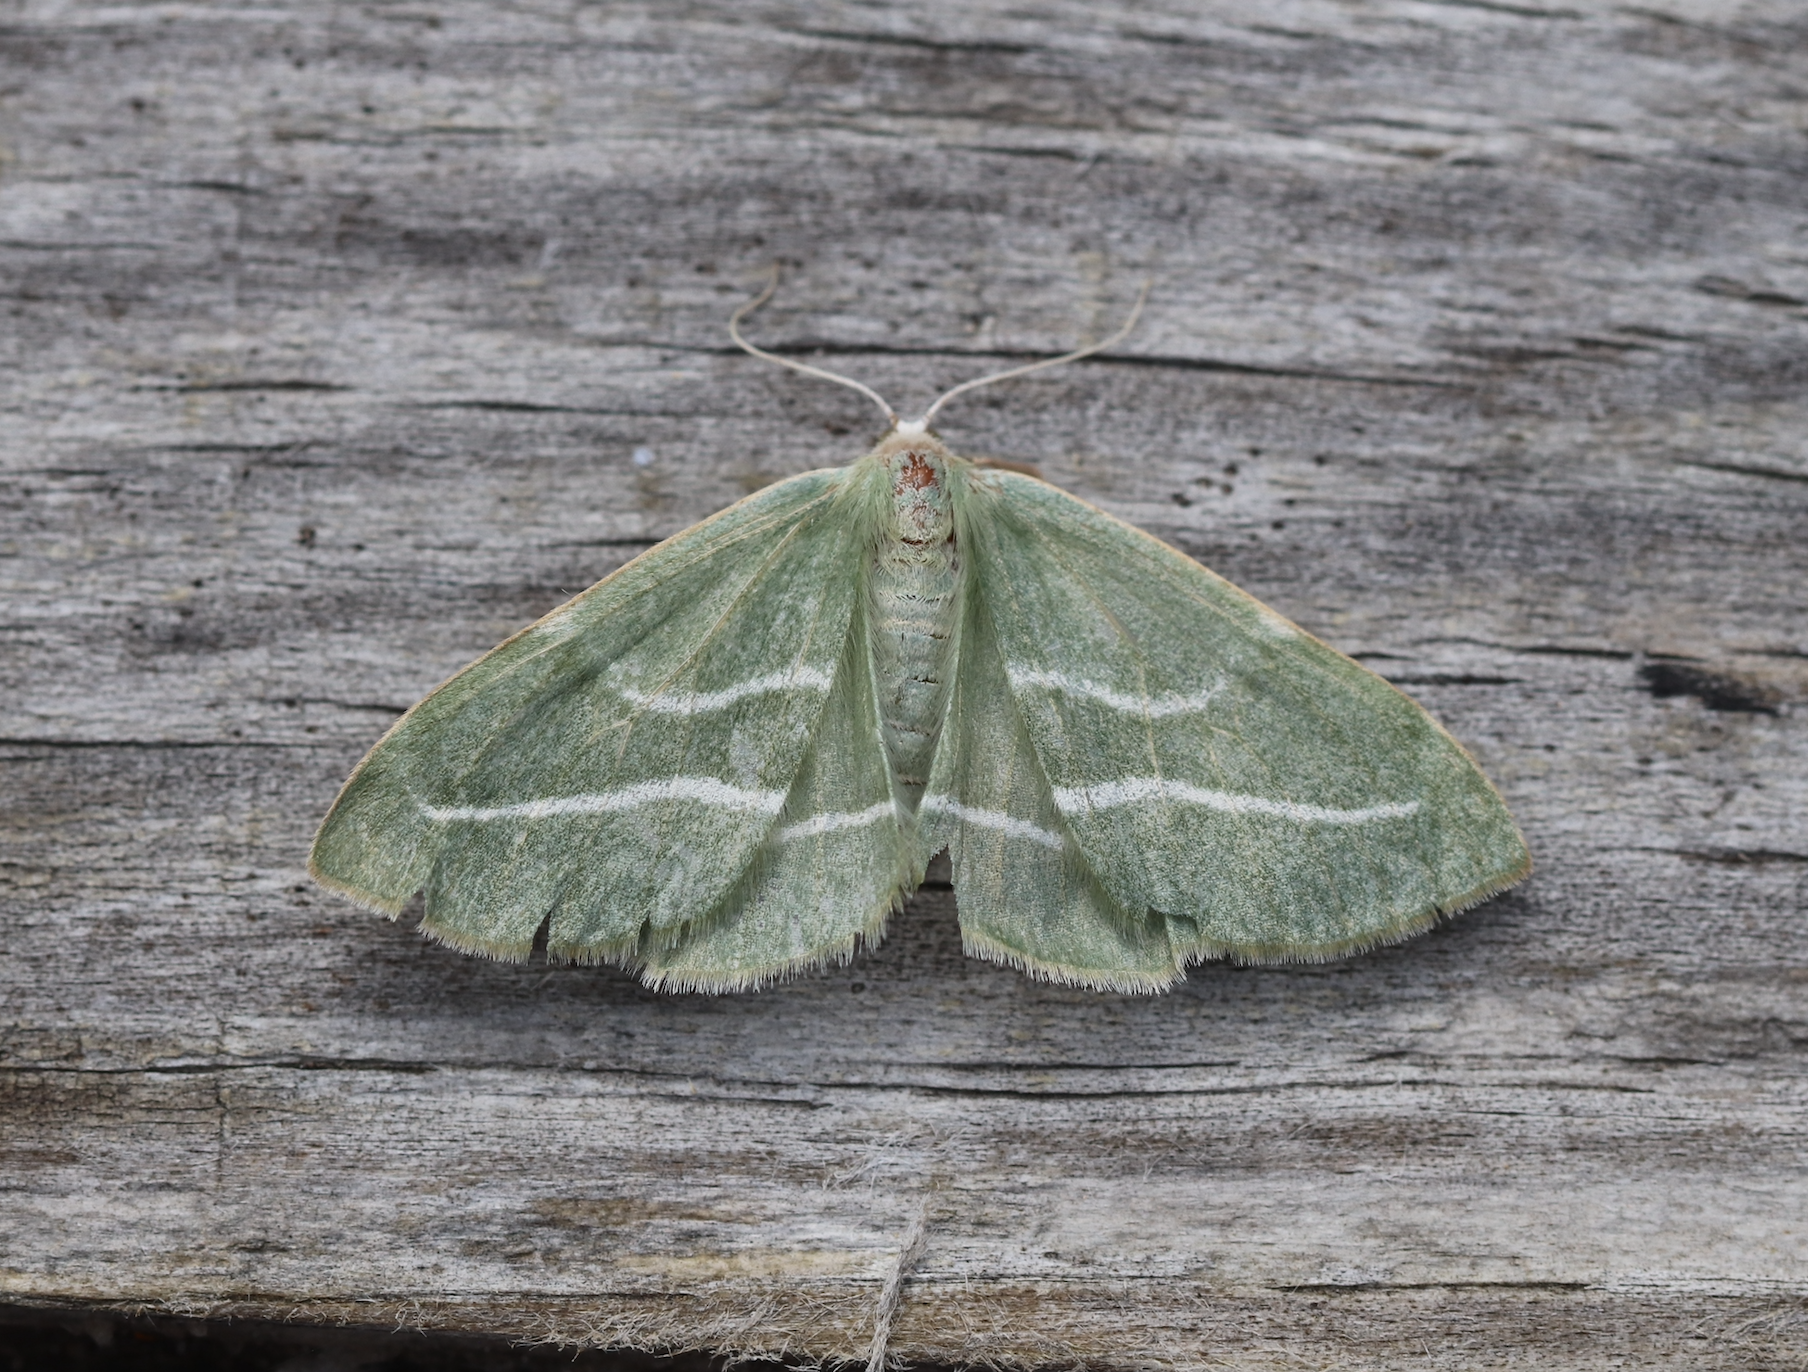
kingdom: Animalia
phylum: Arthropoda
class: Insecta
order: Lepidoptera
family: Geometridae
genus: Hylaea
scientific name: Hylaea fasciaria
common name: Barred red
